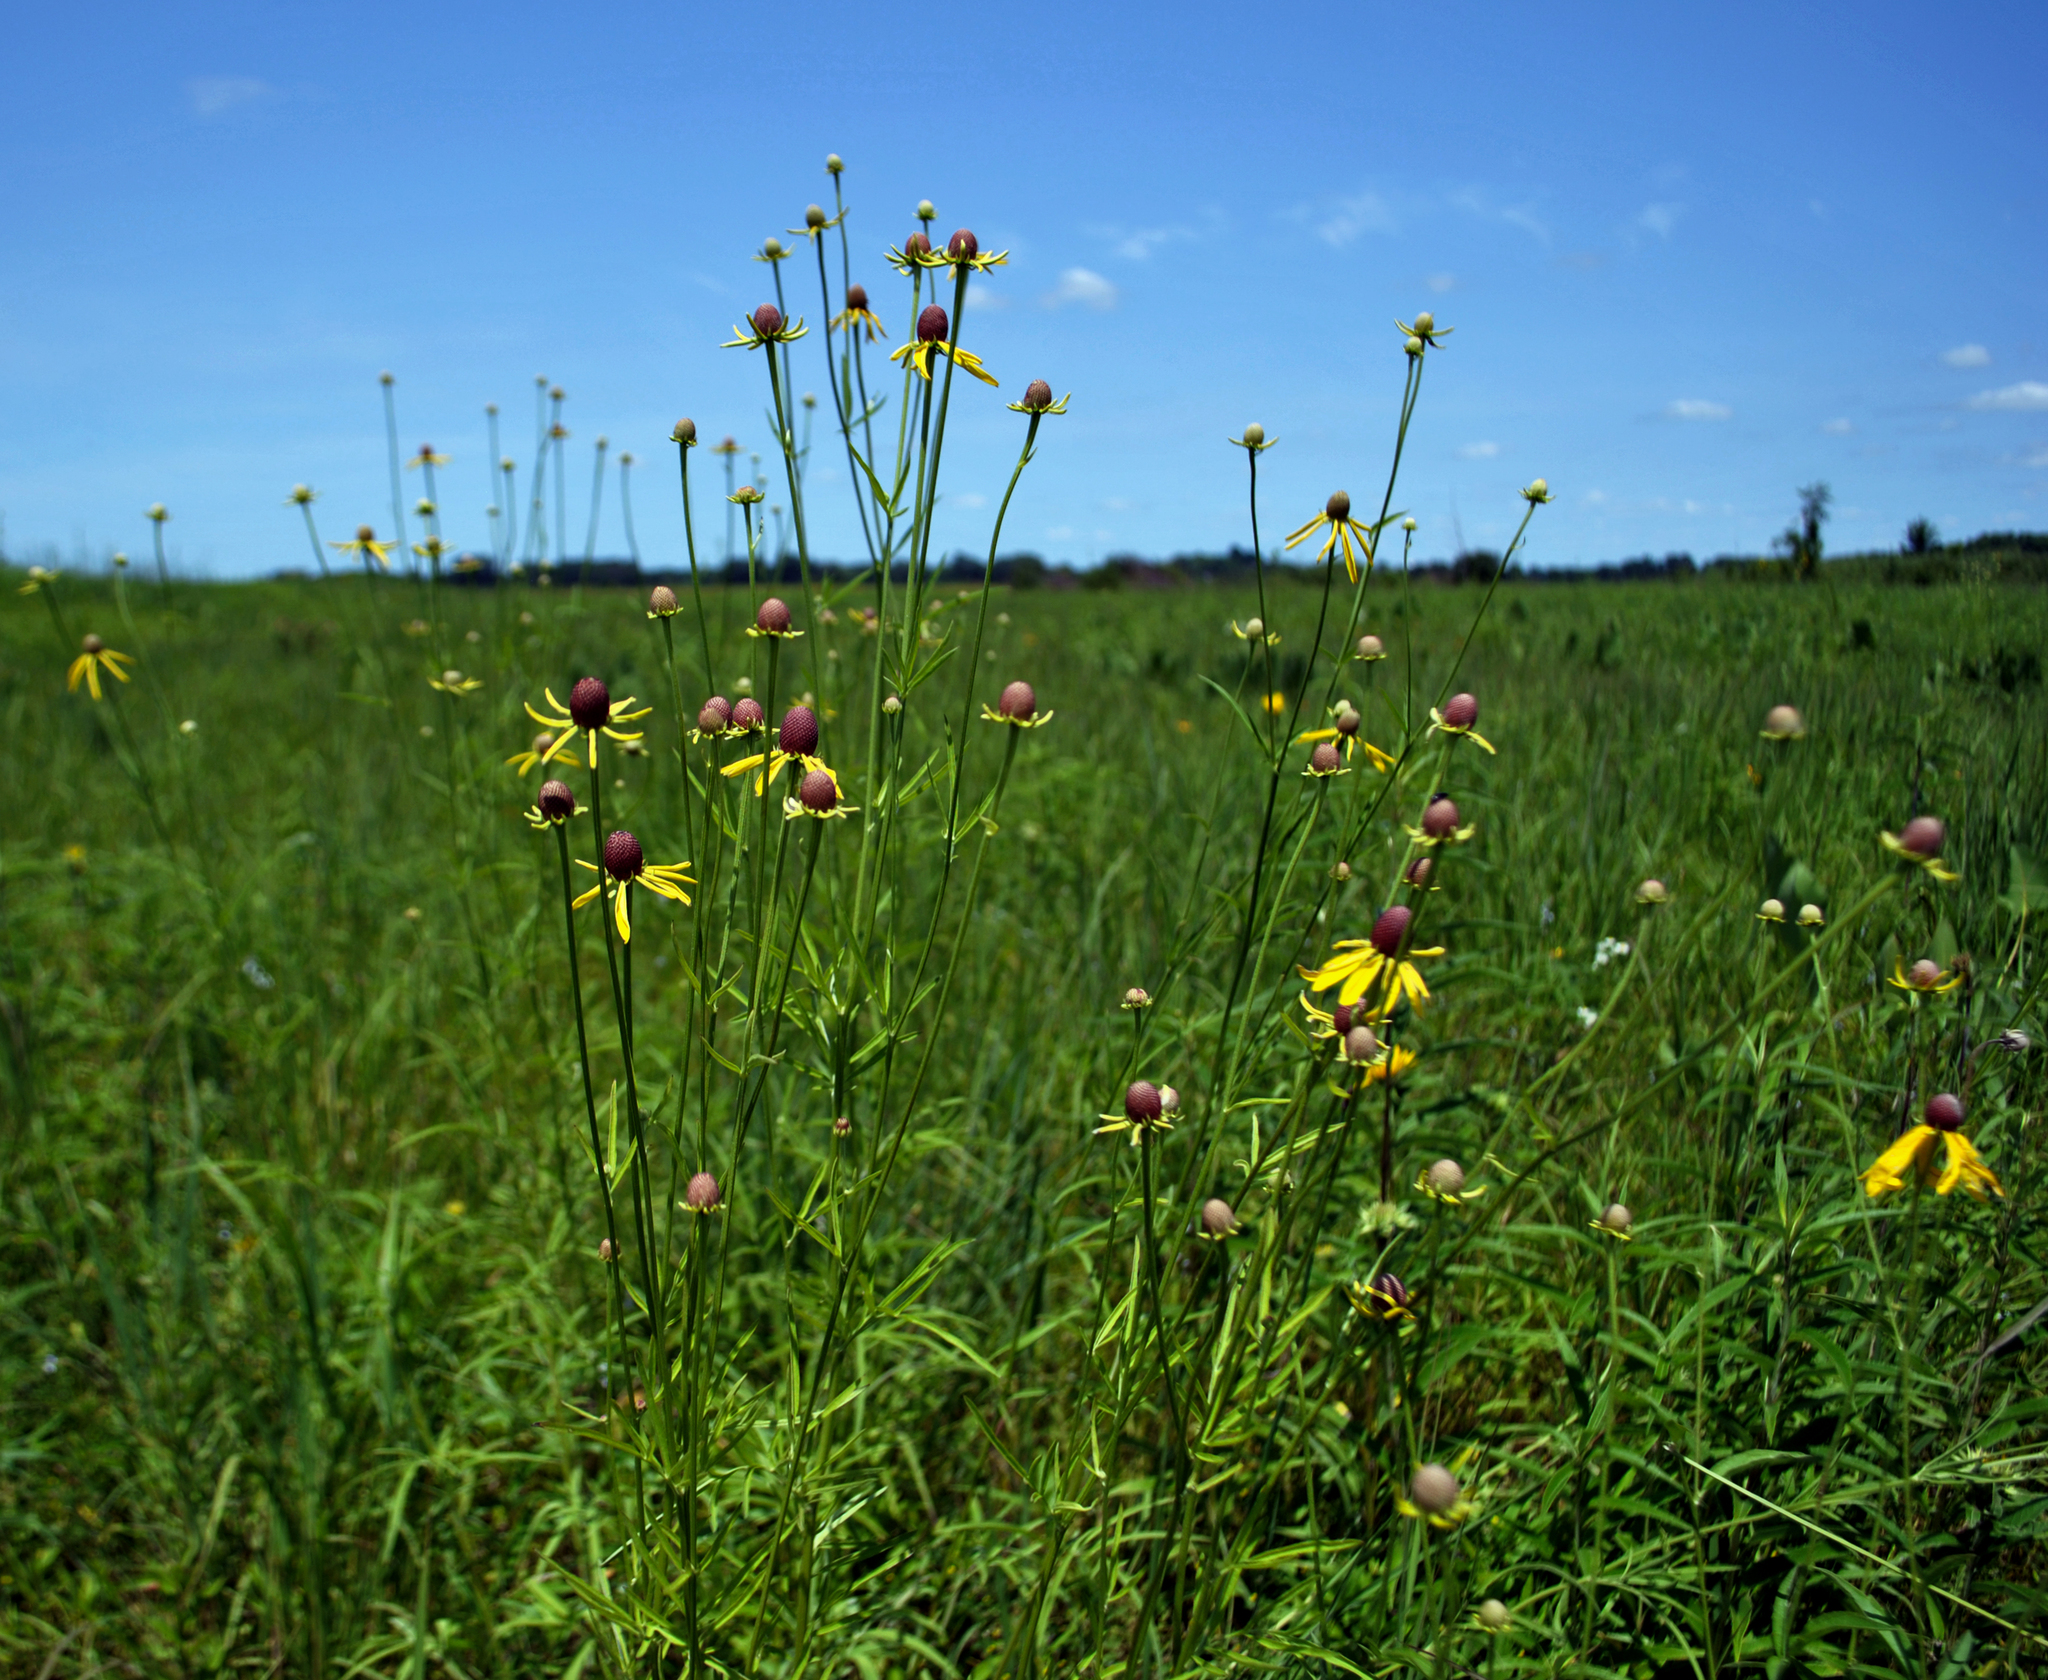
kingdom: Plantae
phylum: Tracheophyta
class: Magnoliopsida
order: Asterales
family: Asteraceae
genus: Ratibida
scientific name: Ratibida pinnata
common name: Drooping prairie-coneflower
